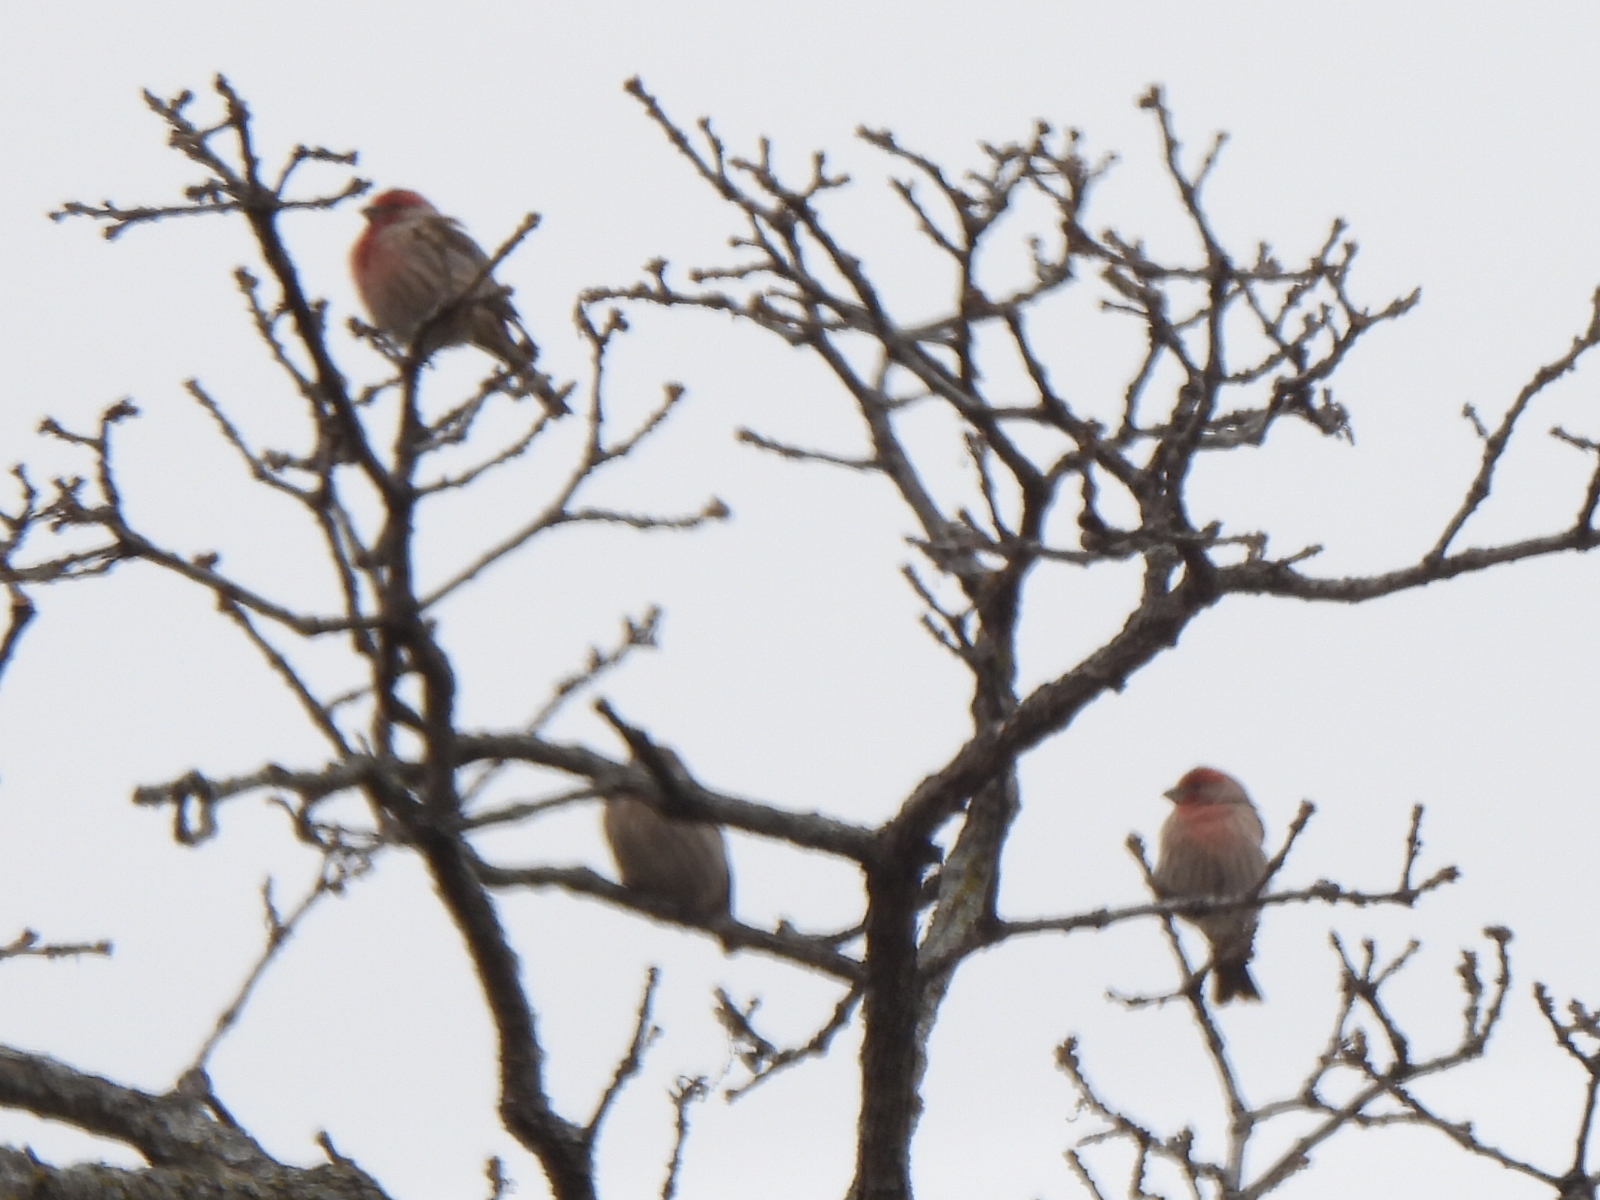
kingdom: Animalia
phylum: Chordata
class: Aves
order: Passeriformes
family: Fringillidae
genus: Haemorhous
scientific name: Haemorhous mexicanus
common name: House finch
